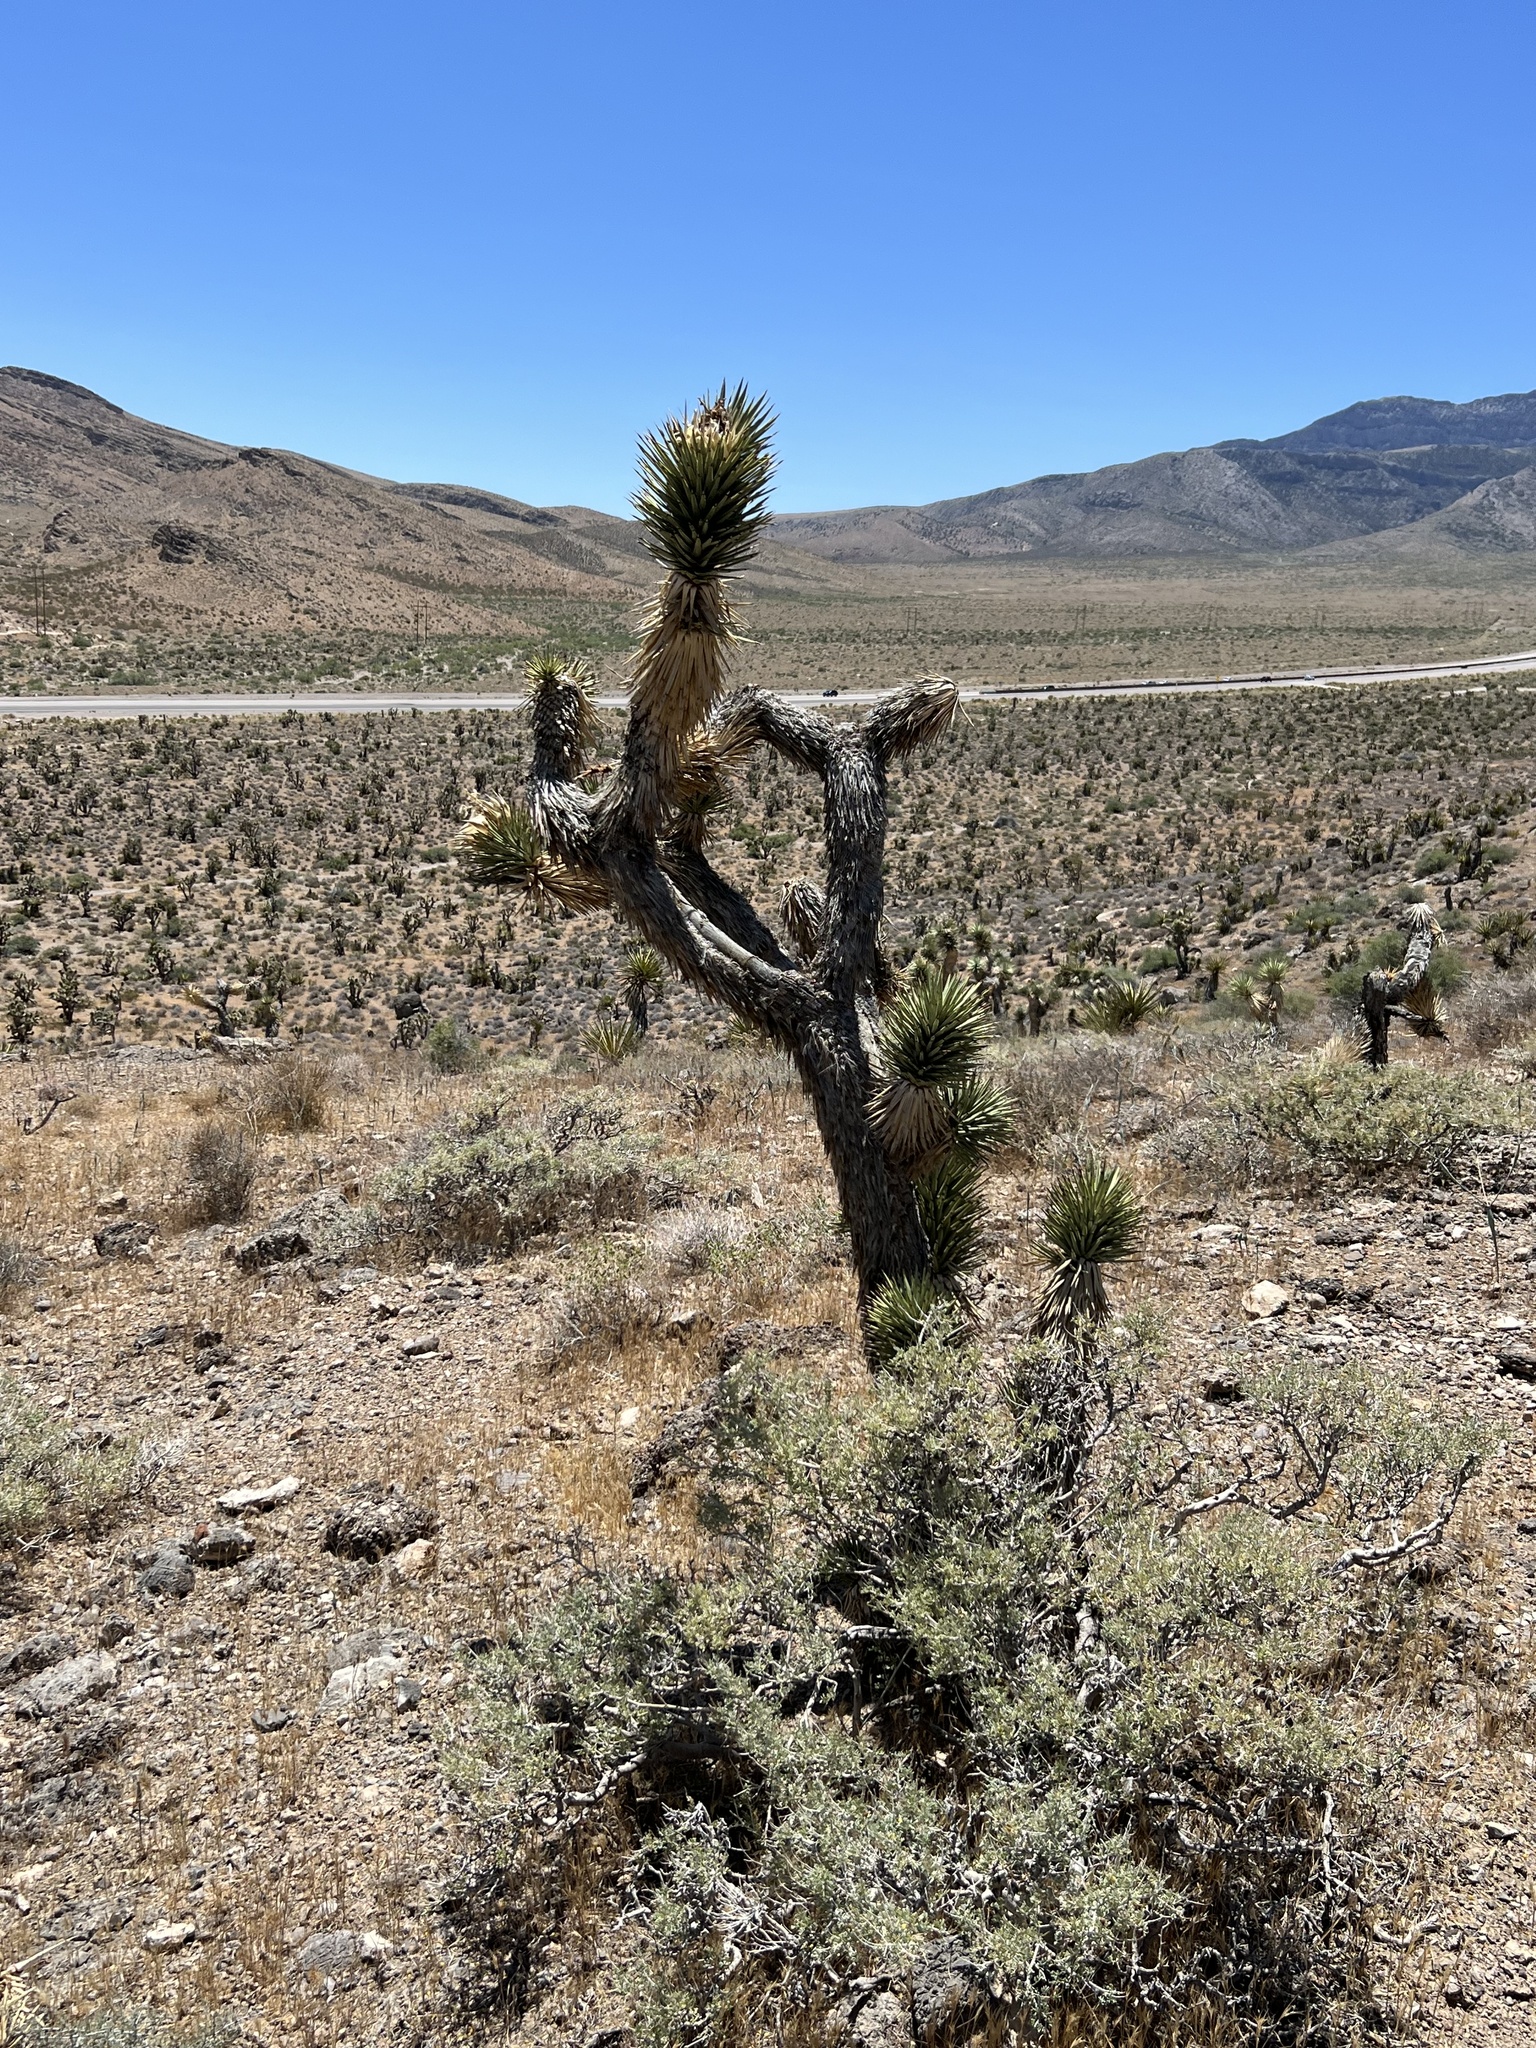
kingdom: Plantae
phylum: Tracheophyta
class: Liliopsida
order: Asparagales
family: Asparagaceae
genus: Yucca
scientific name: Yucca brevifolia
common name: Joshua tree
